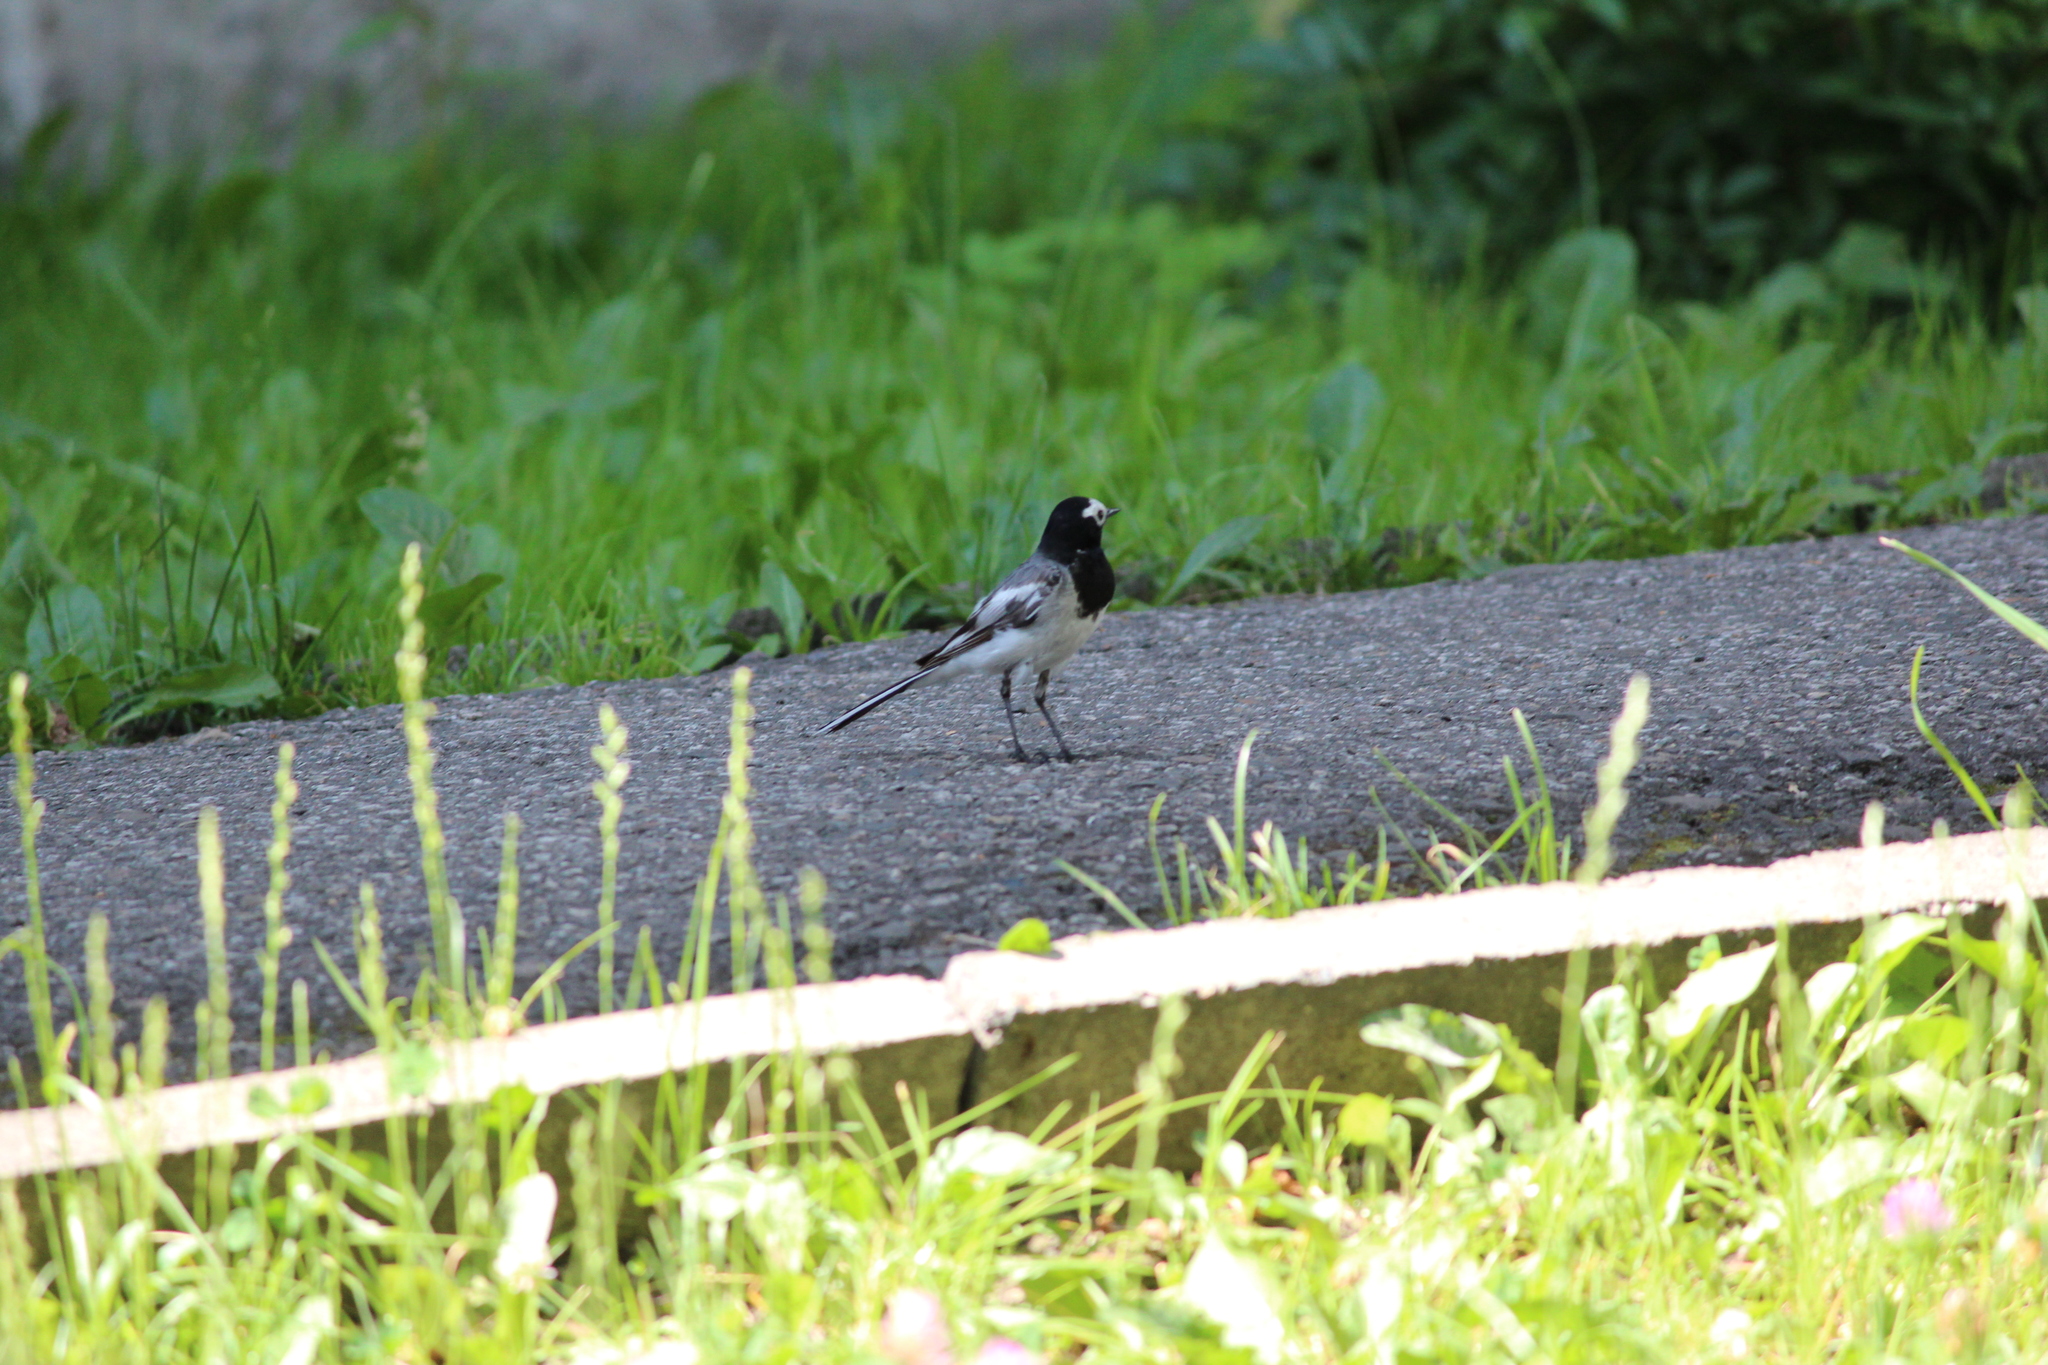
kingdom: Animalia
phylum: Chordata
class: Aves
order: Passeriformes
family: Motacillidae
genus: Motacilla
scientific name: Motacilla alba
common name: White wagtail
